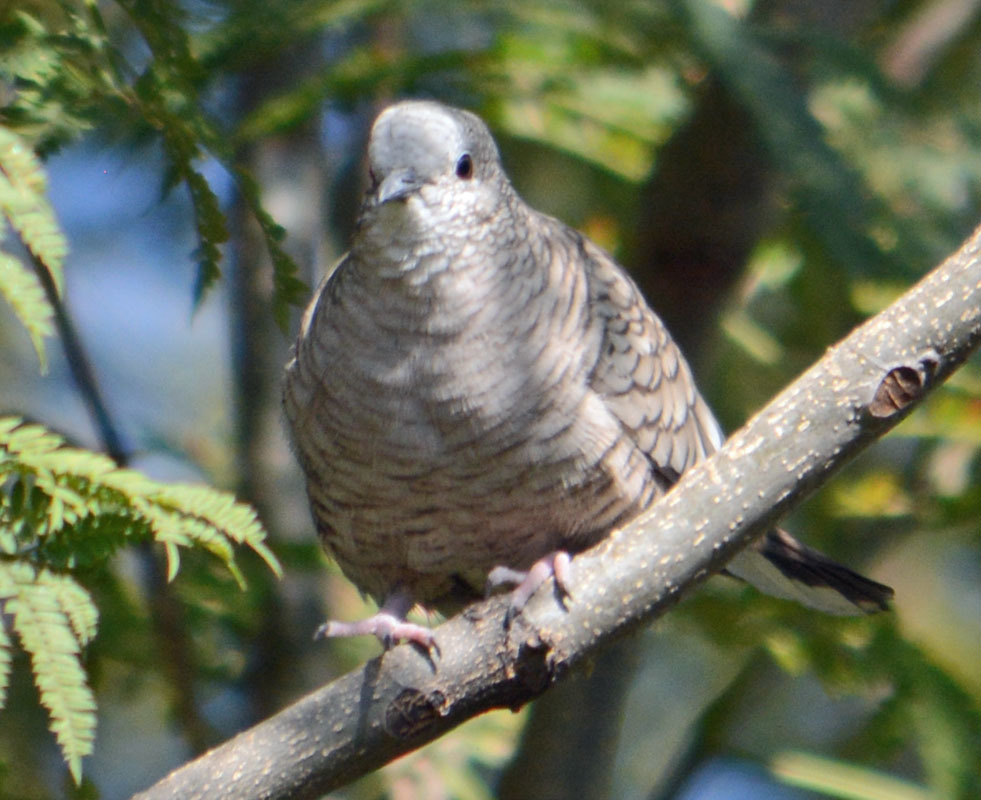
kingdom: Animalia
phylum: Chordata
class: Aves
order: Columbiformes
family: Columbidae
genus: Columbina
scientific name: Columbina inca
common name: Inca dove
